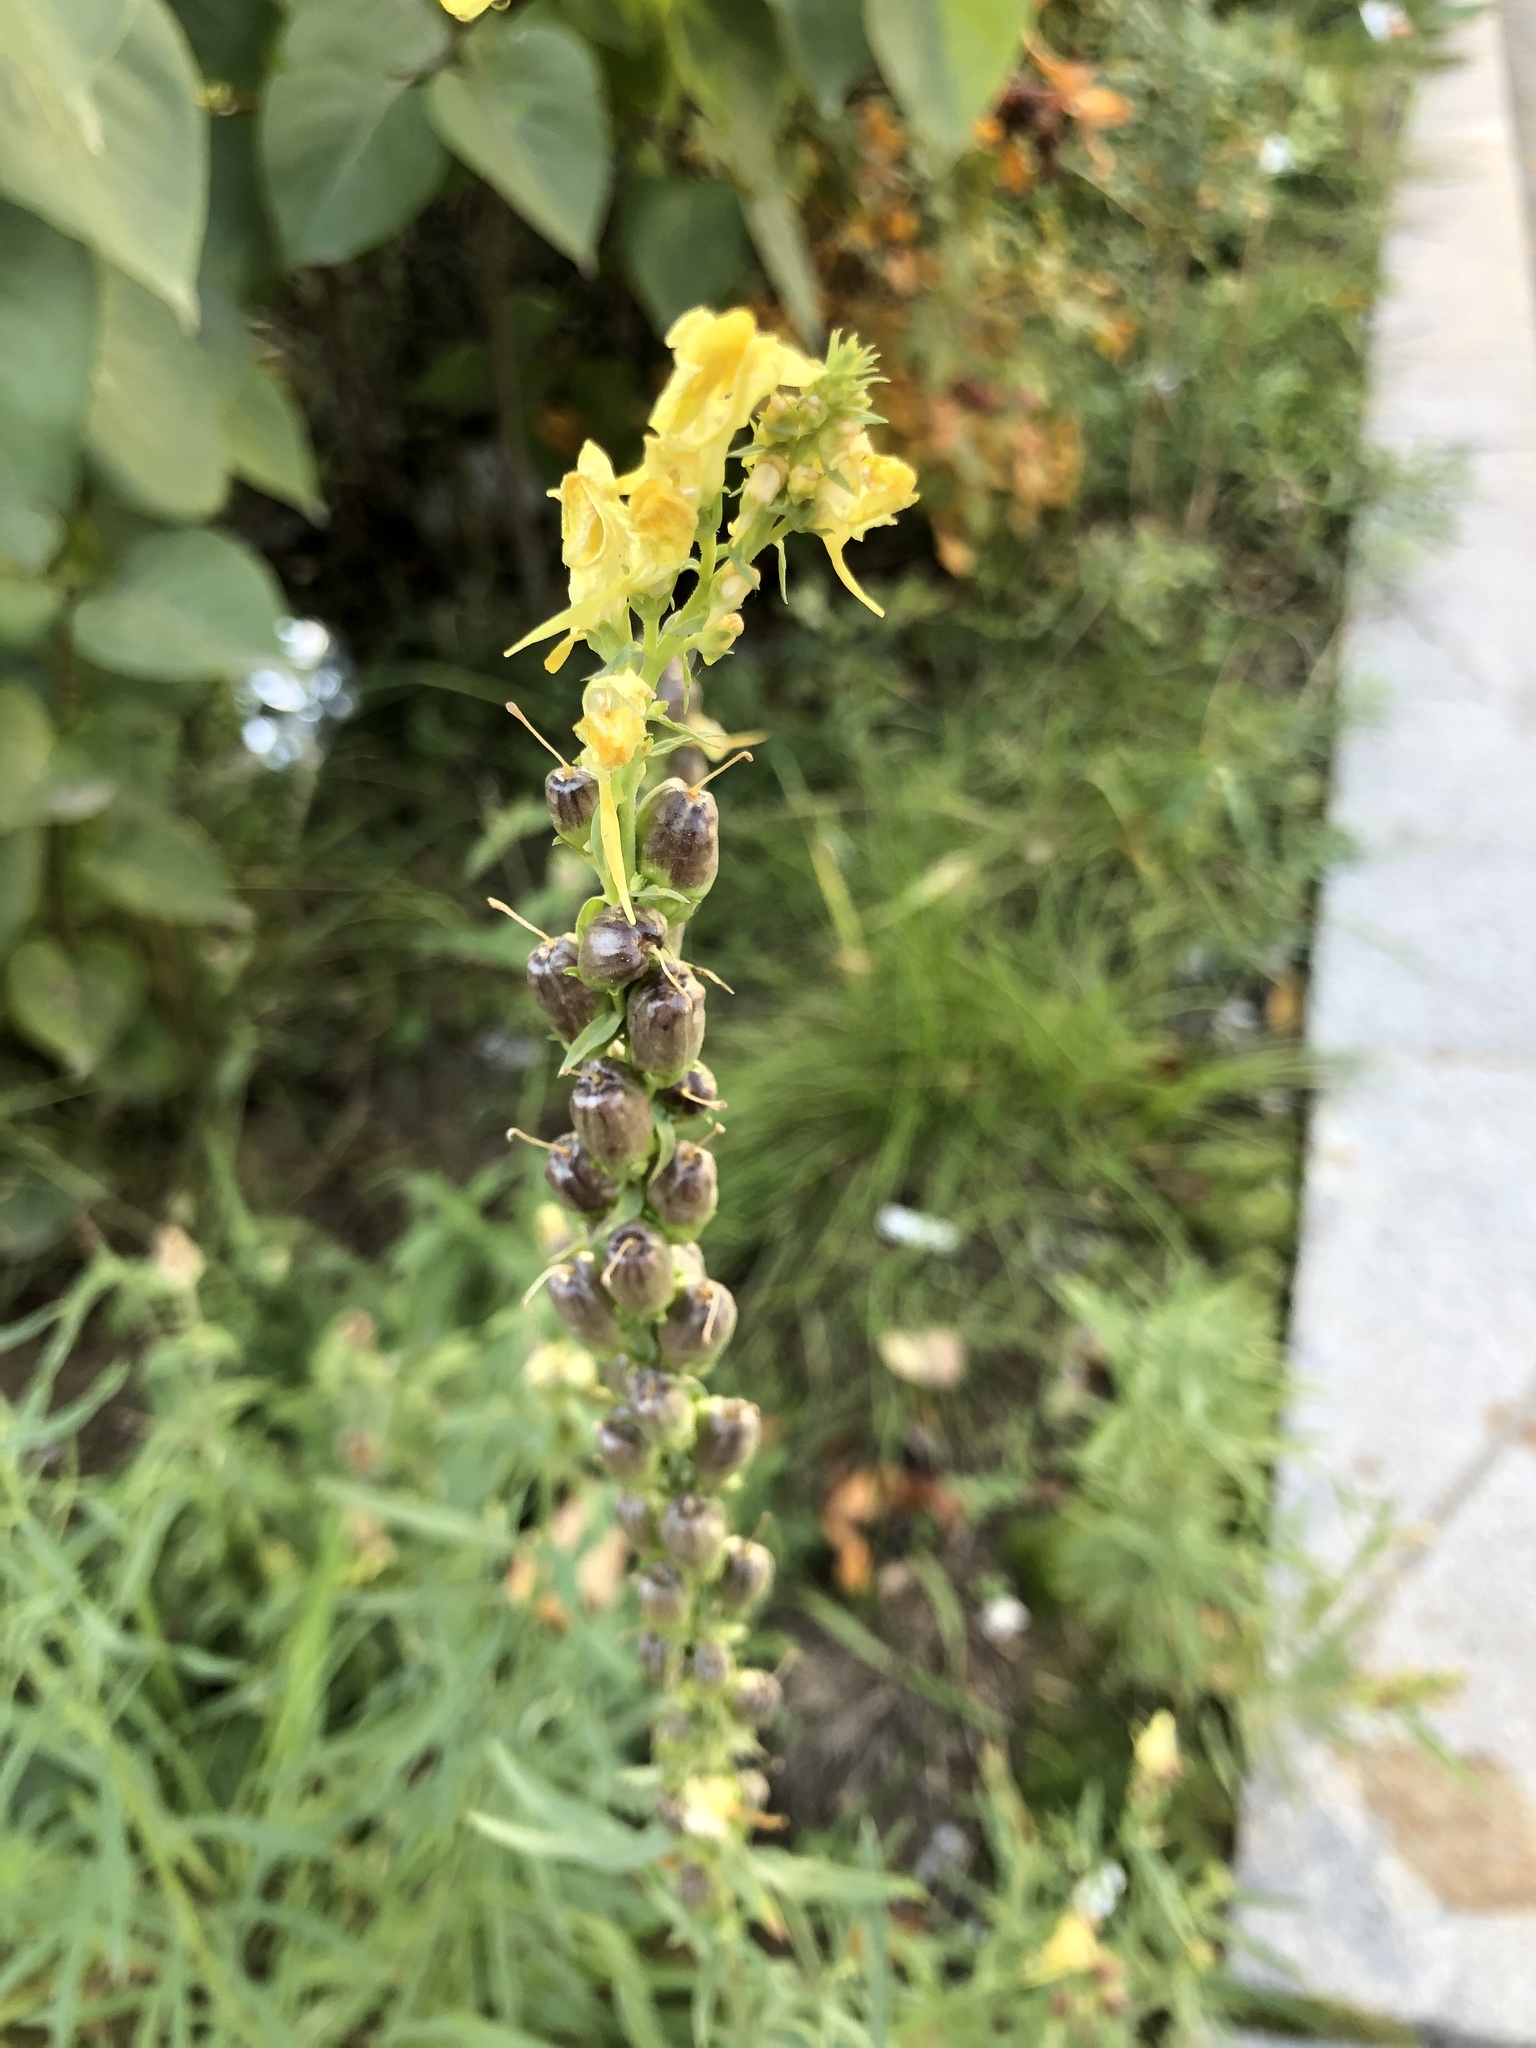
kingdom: Plantae
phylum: Tracheophyta
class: Magnoliopsida
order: Lamiales
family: Plantaginaceae
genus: Linaria
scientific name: Linaria vulgaris
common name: Butter and eggs
